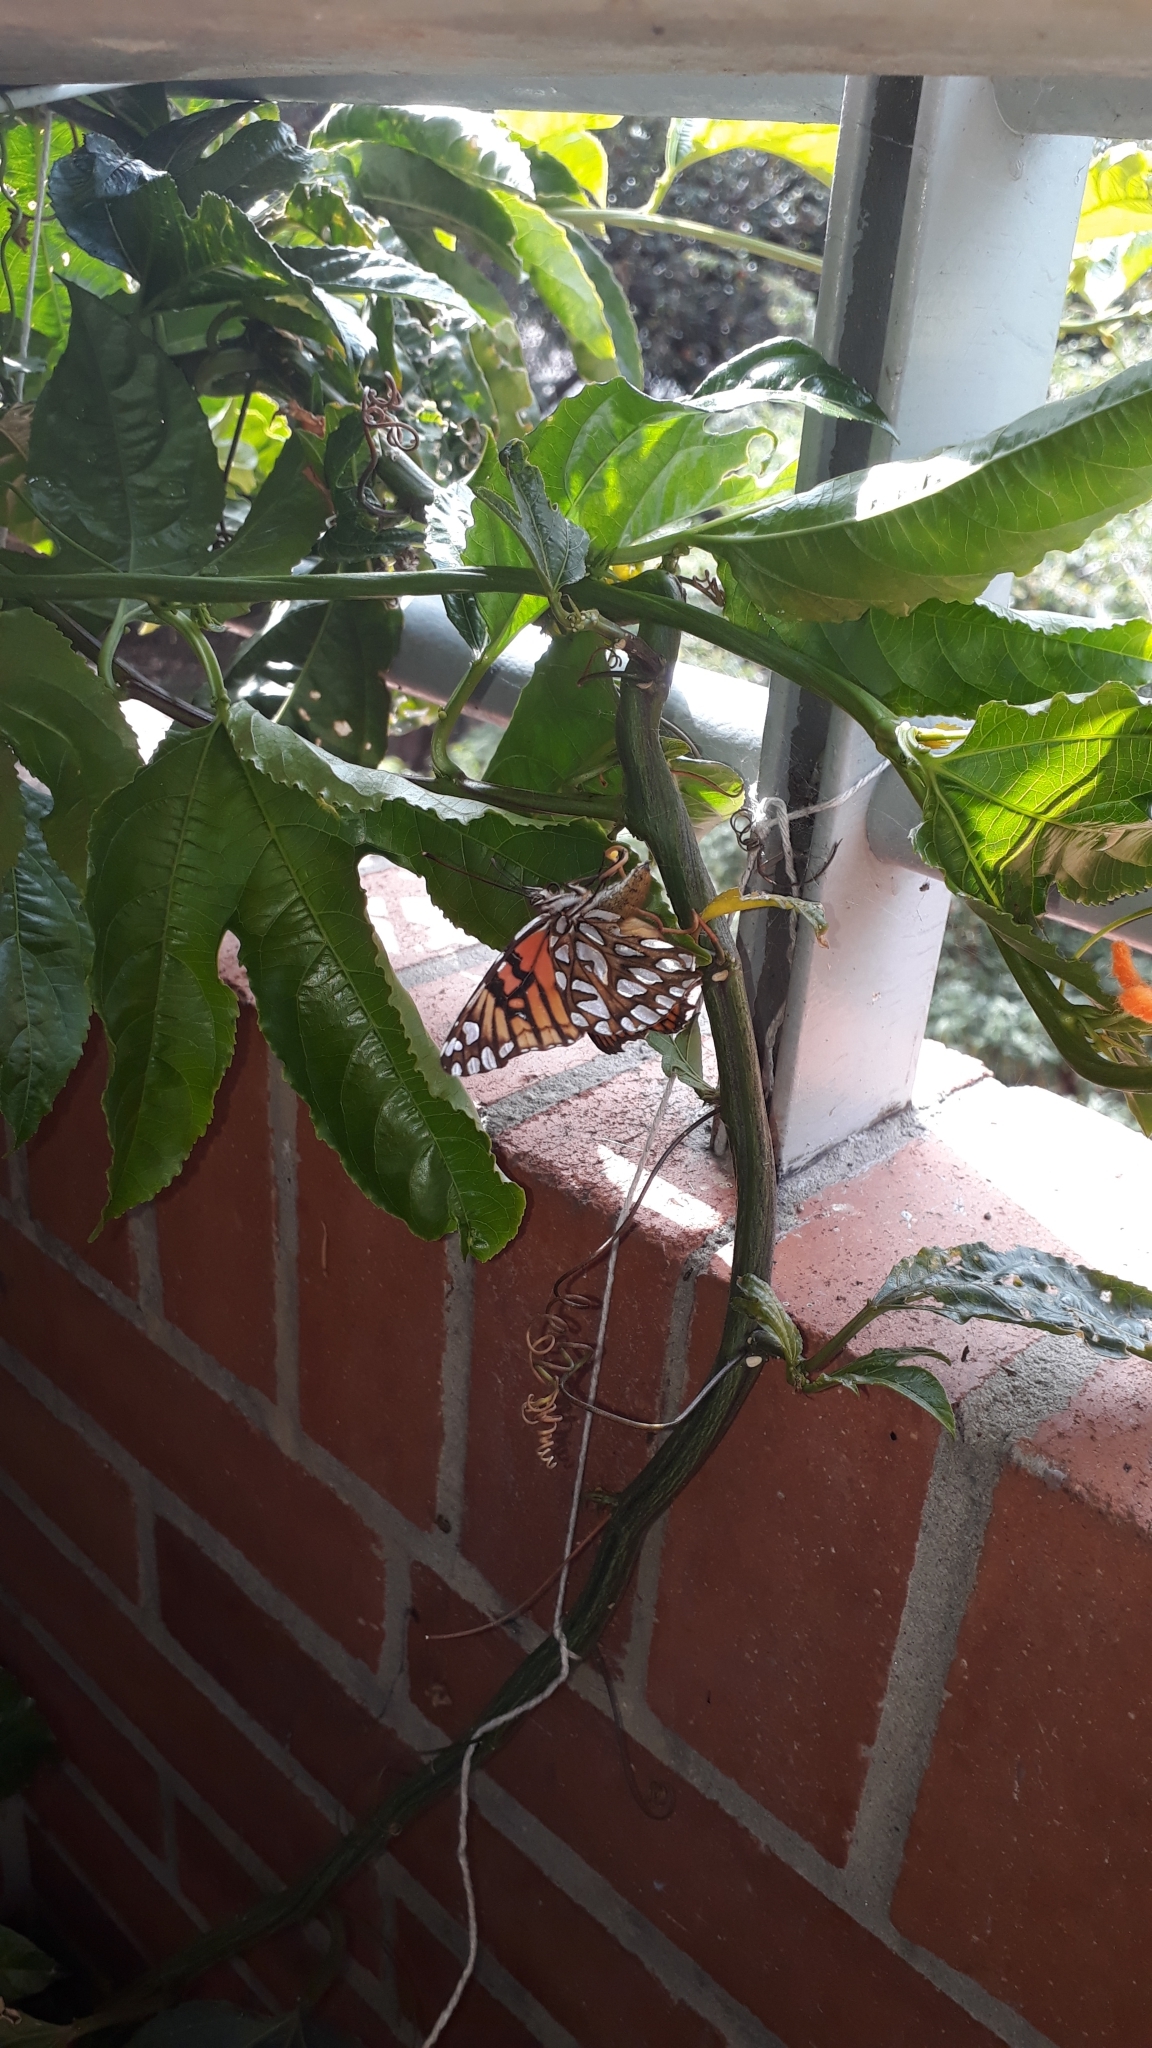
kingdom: Animalia
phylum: Arthropoda
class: Insecta
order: Lepidoptera
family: Nymphalidae
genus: Dione
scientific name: Dione glycera
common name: Andean silverspot
